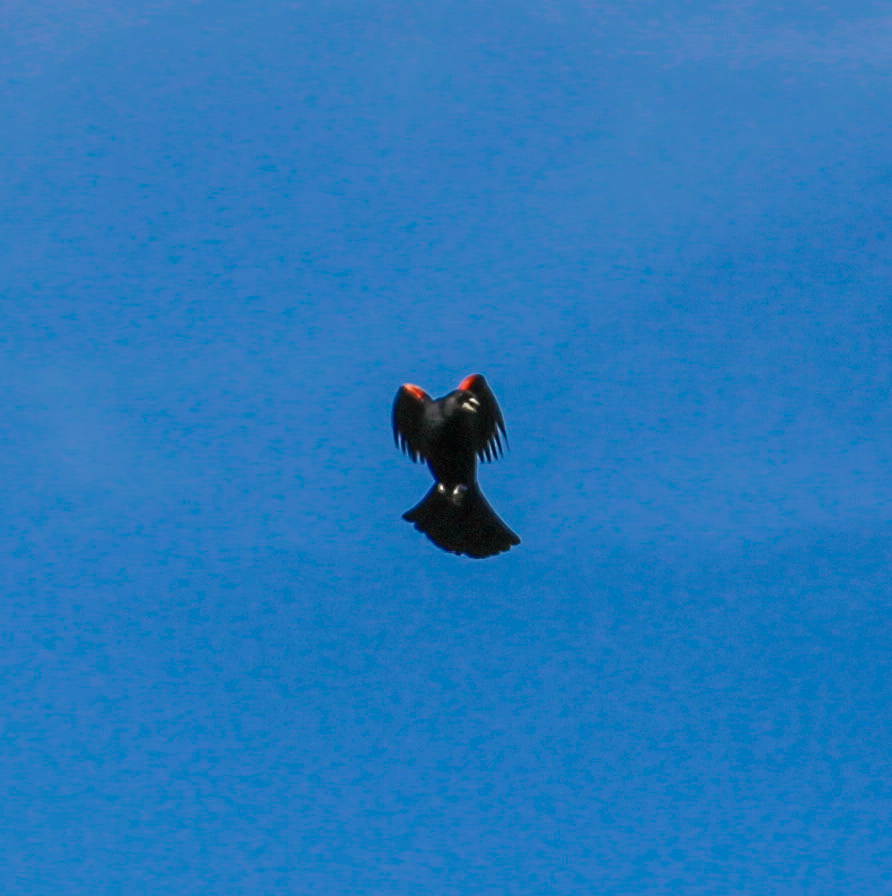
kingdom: Animalia
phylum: Chordata
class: Aves
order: Passeriformes
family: Icteridae
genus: Agelaius
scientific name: Agelaius phoeniceus
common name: Red-winged blackbird
